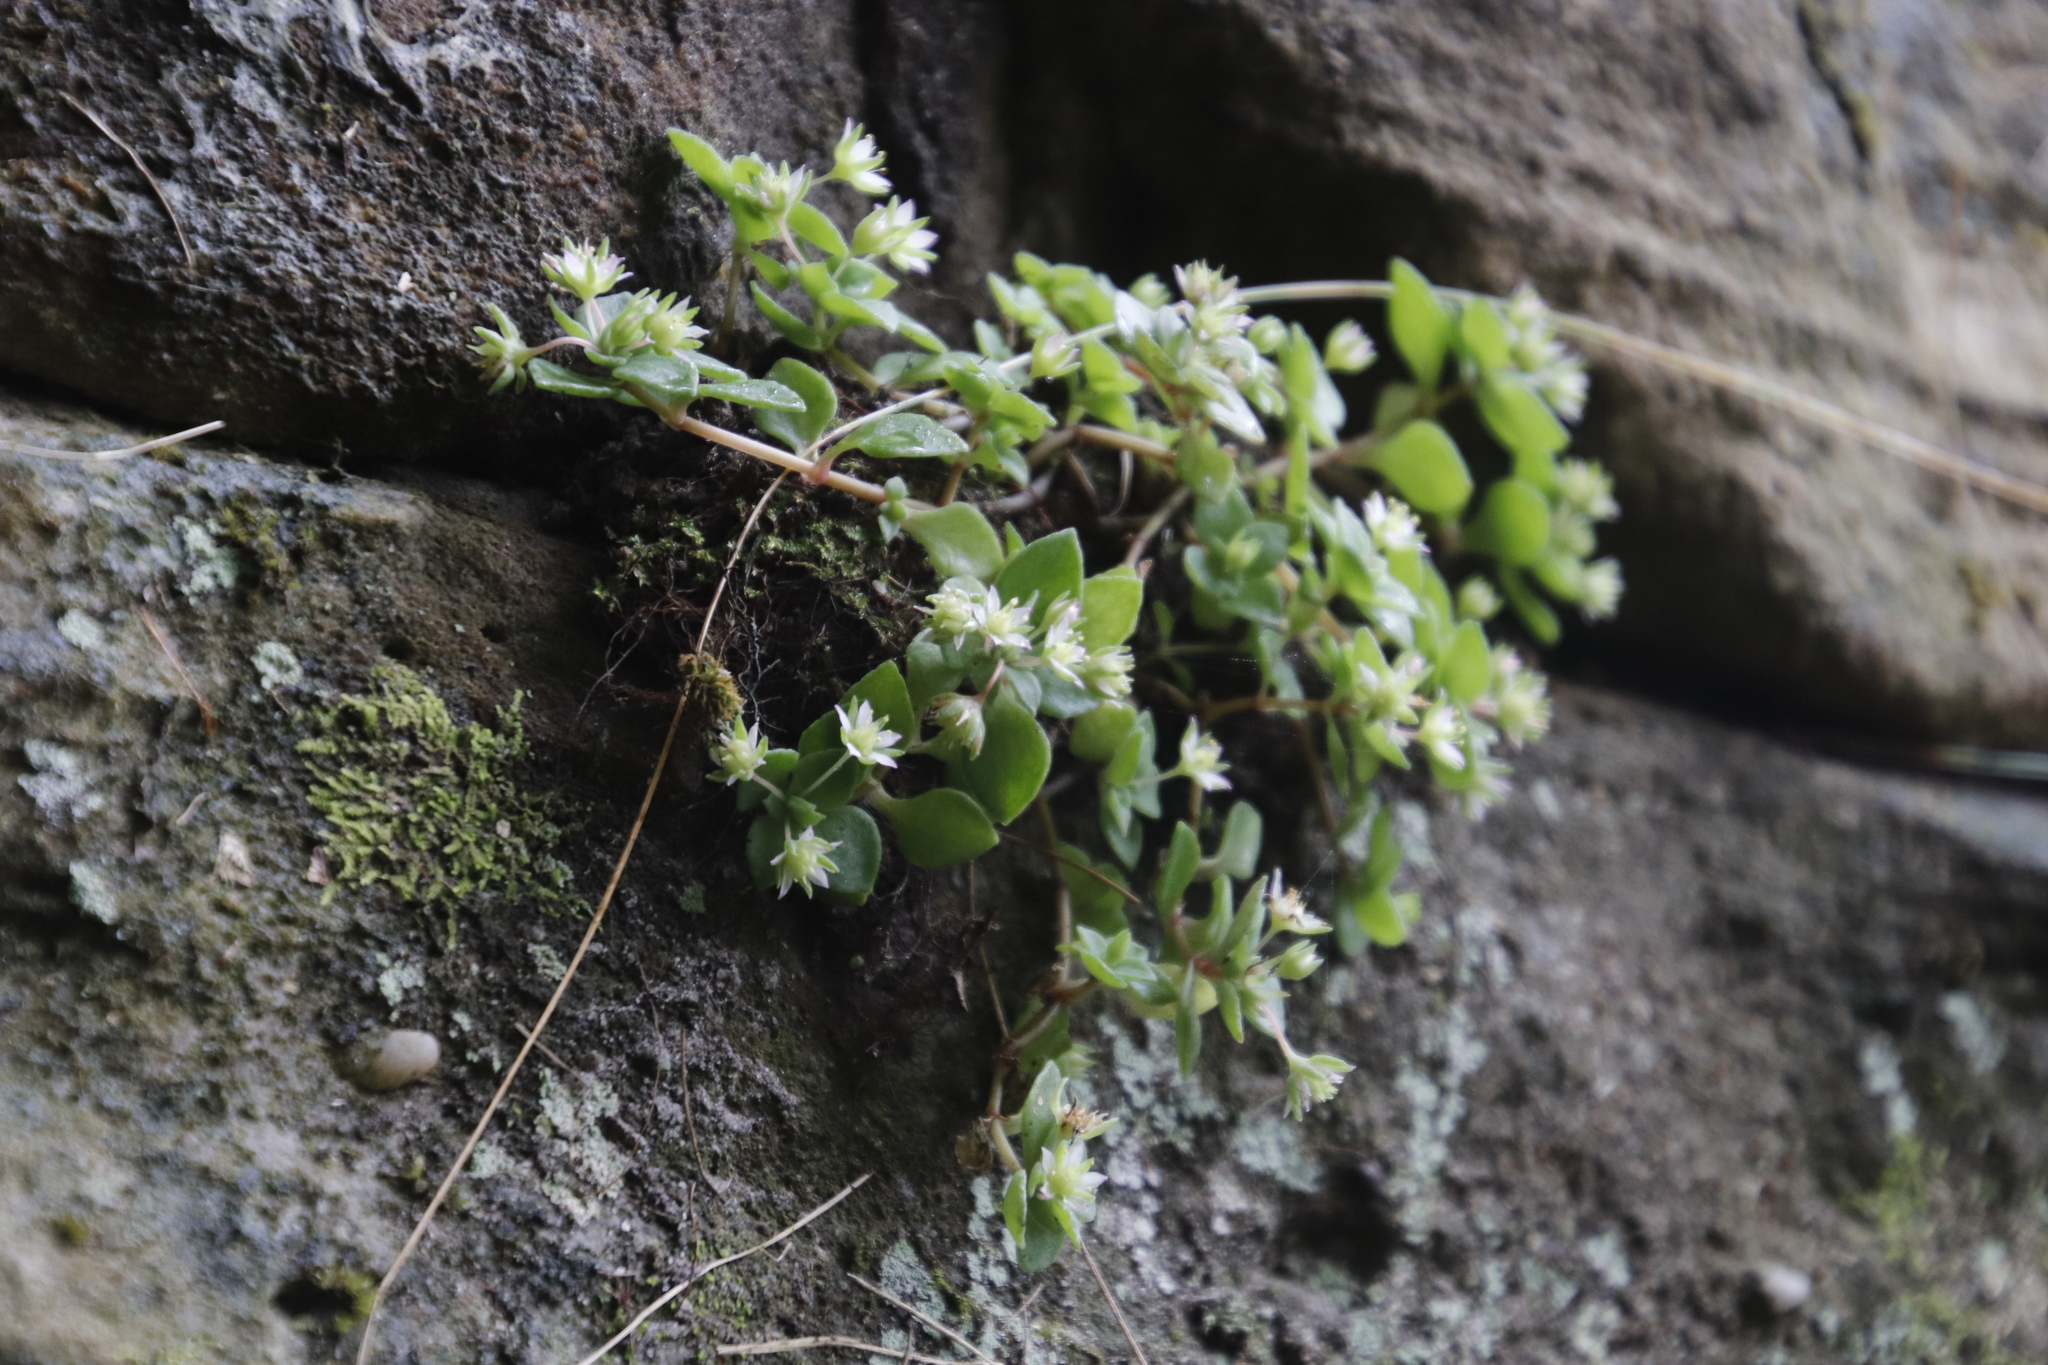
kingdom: Plantae
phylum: Tracheophyta
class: Magnoliopsida
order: Saxifragales
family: Crassulaceae
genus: Crassula
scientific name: Crassula pellucida
